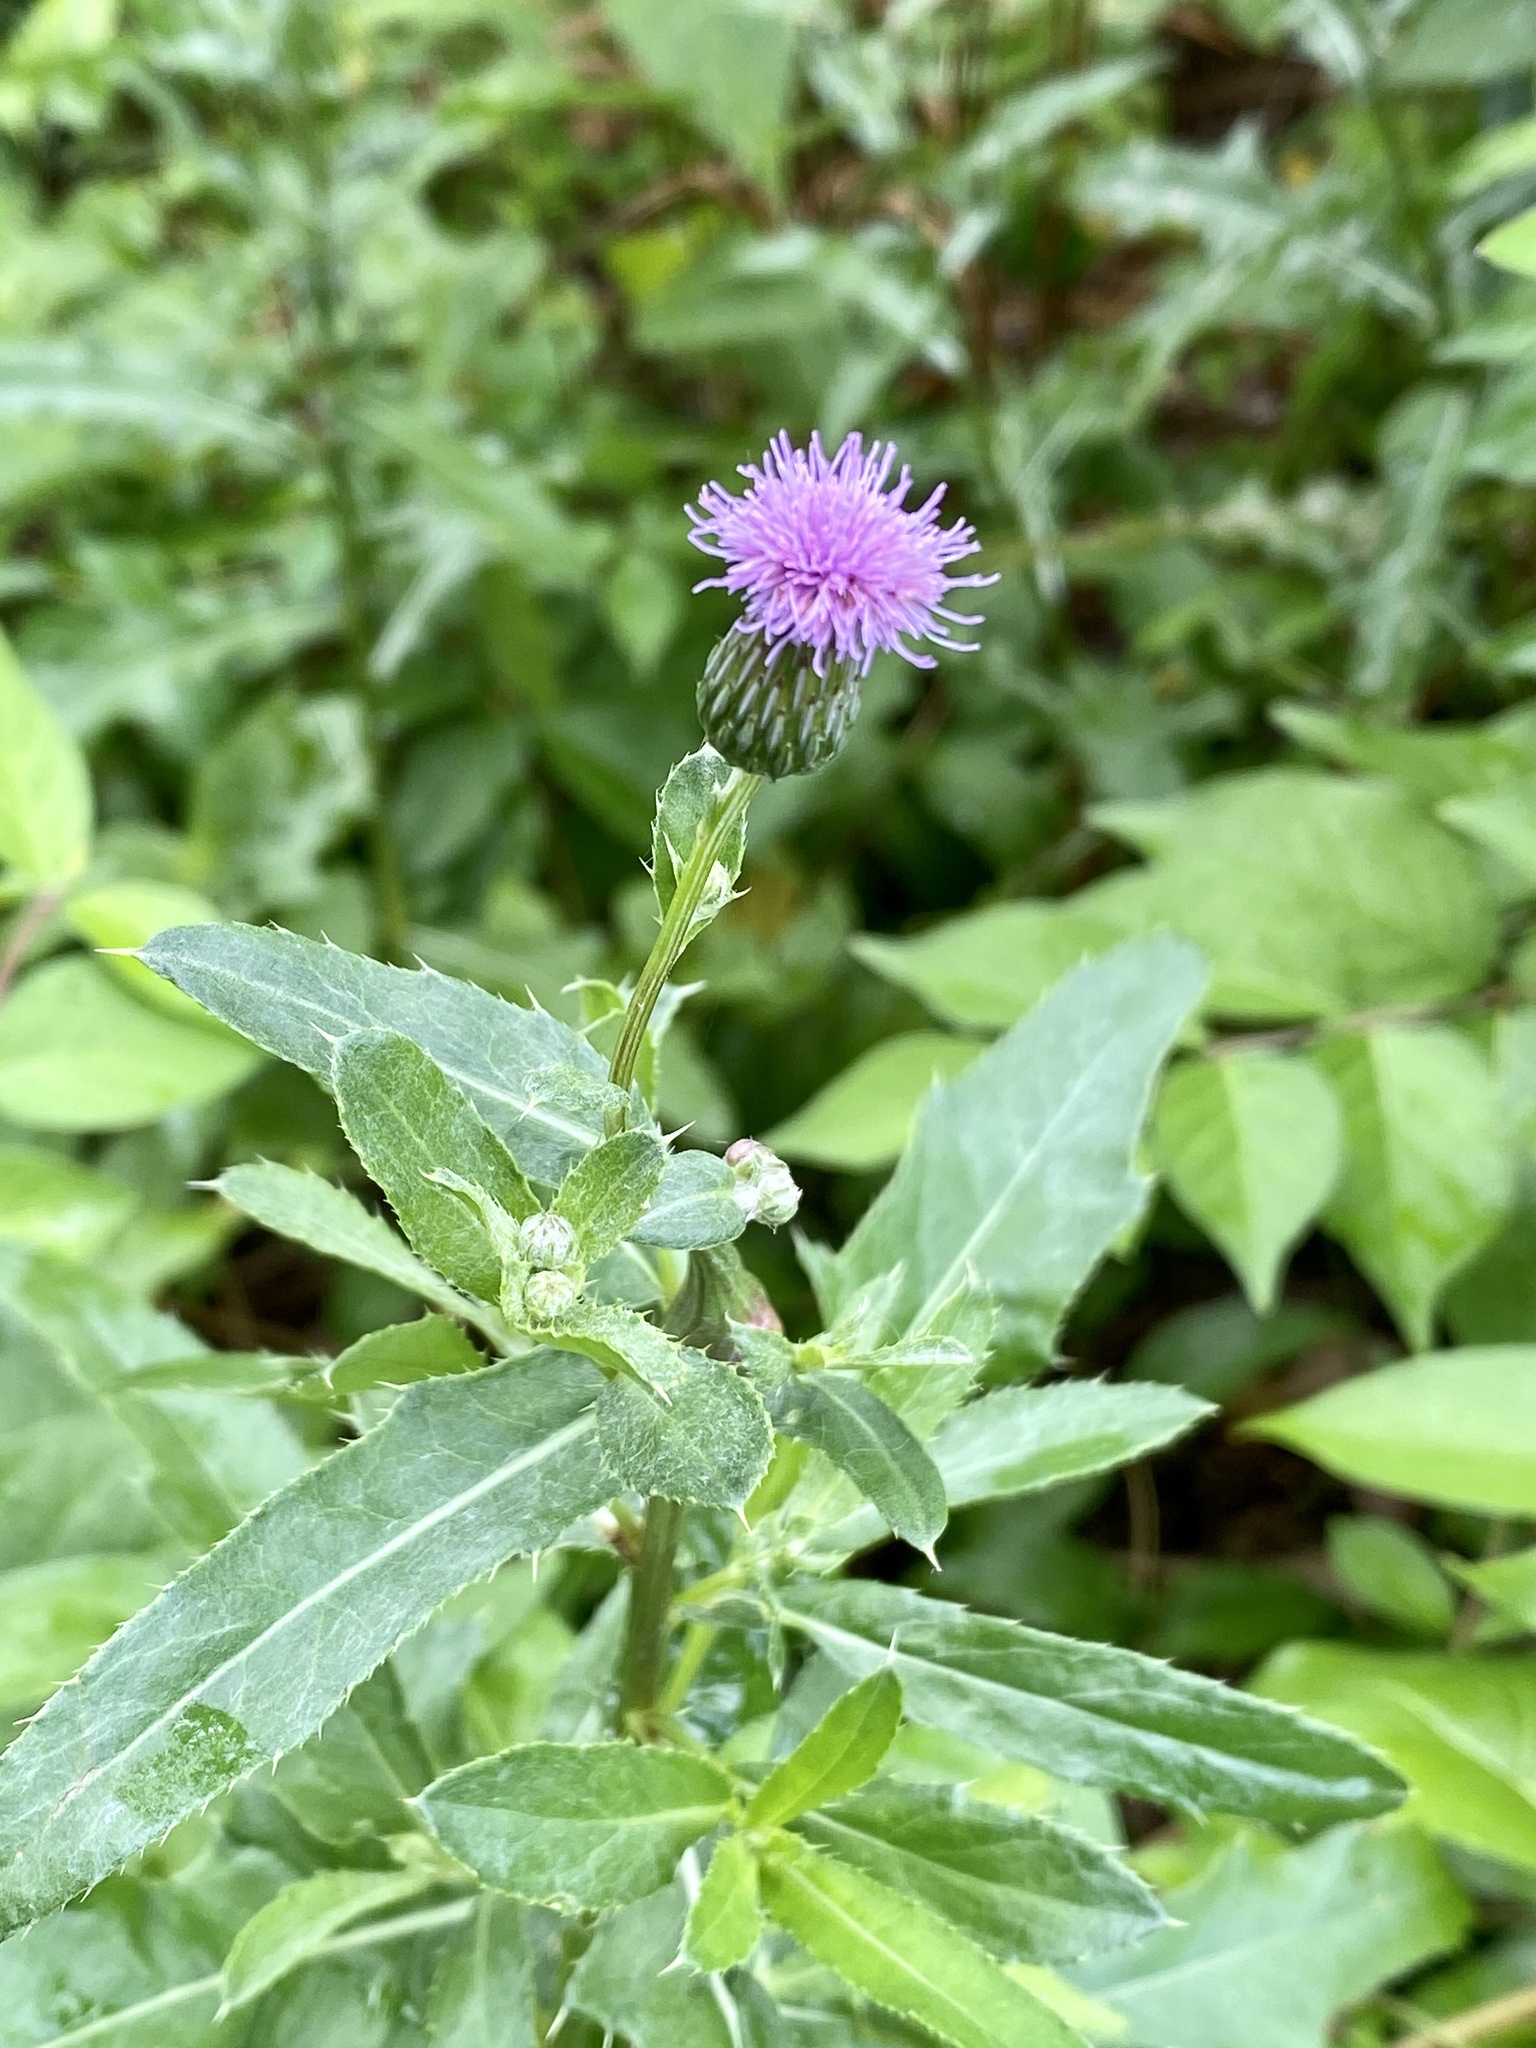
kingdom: Plantae
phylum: Tracheophyta
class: Magnoliopsida
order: Asterales
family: Asteraceae
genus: Cirsium
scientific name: Cirsium arvense
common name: Creeping thistle
